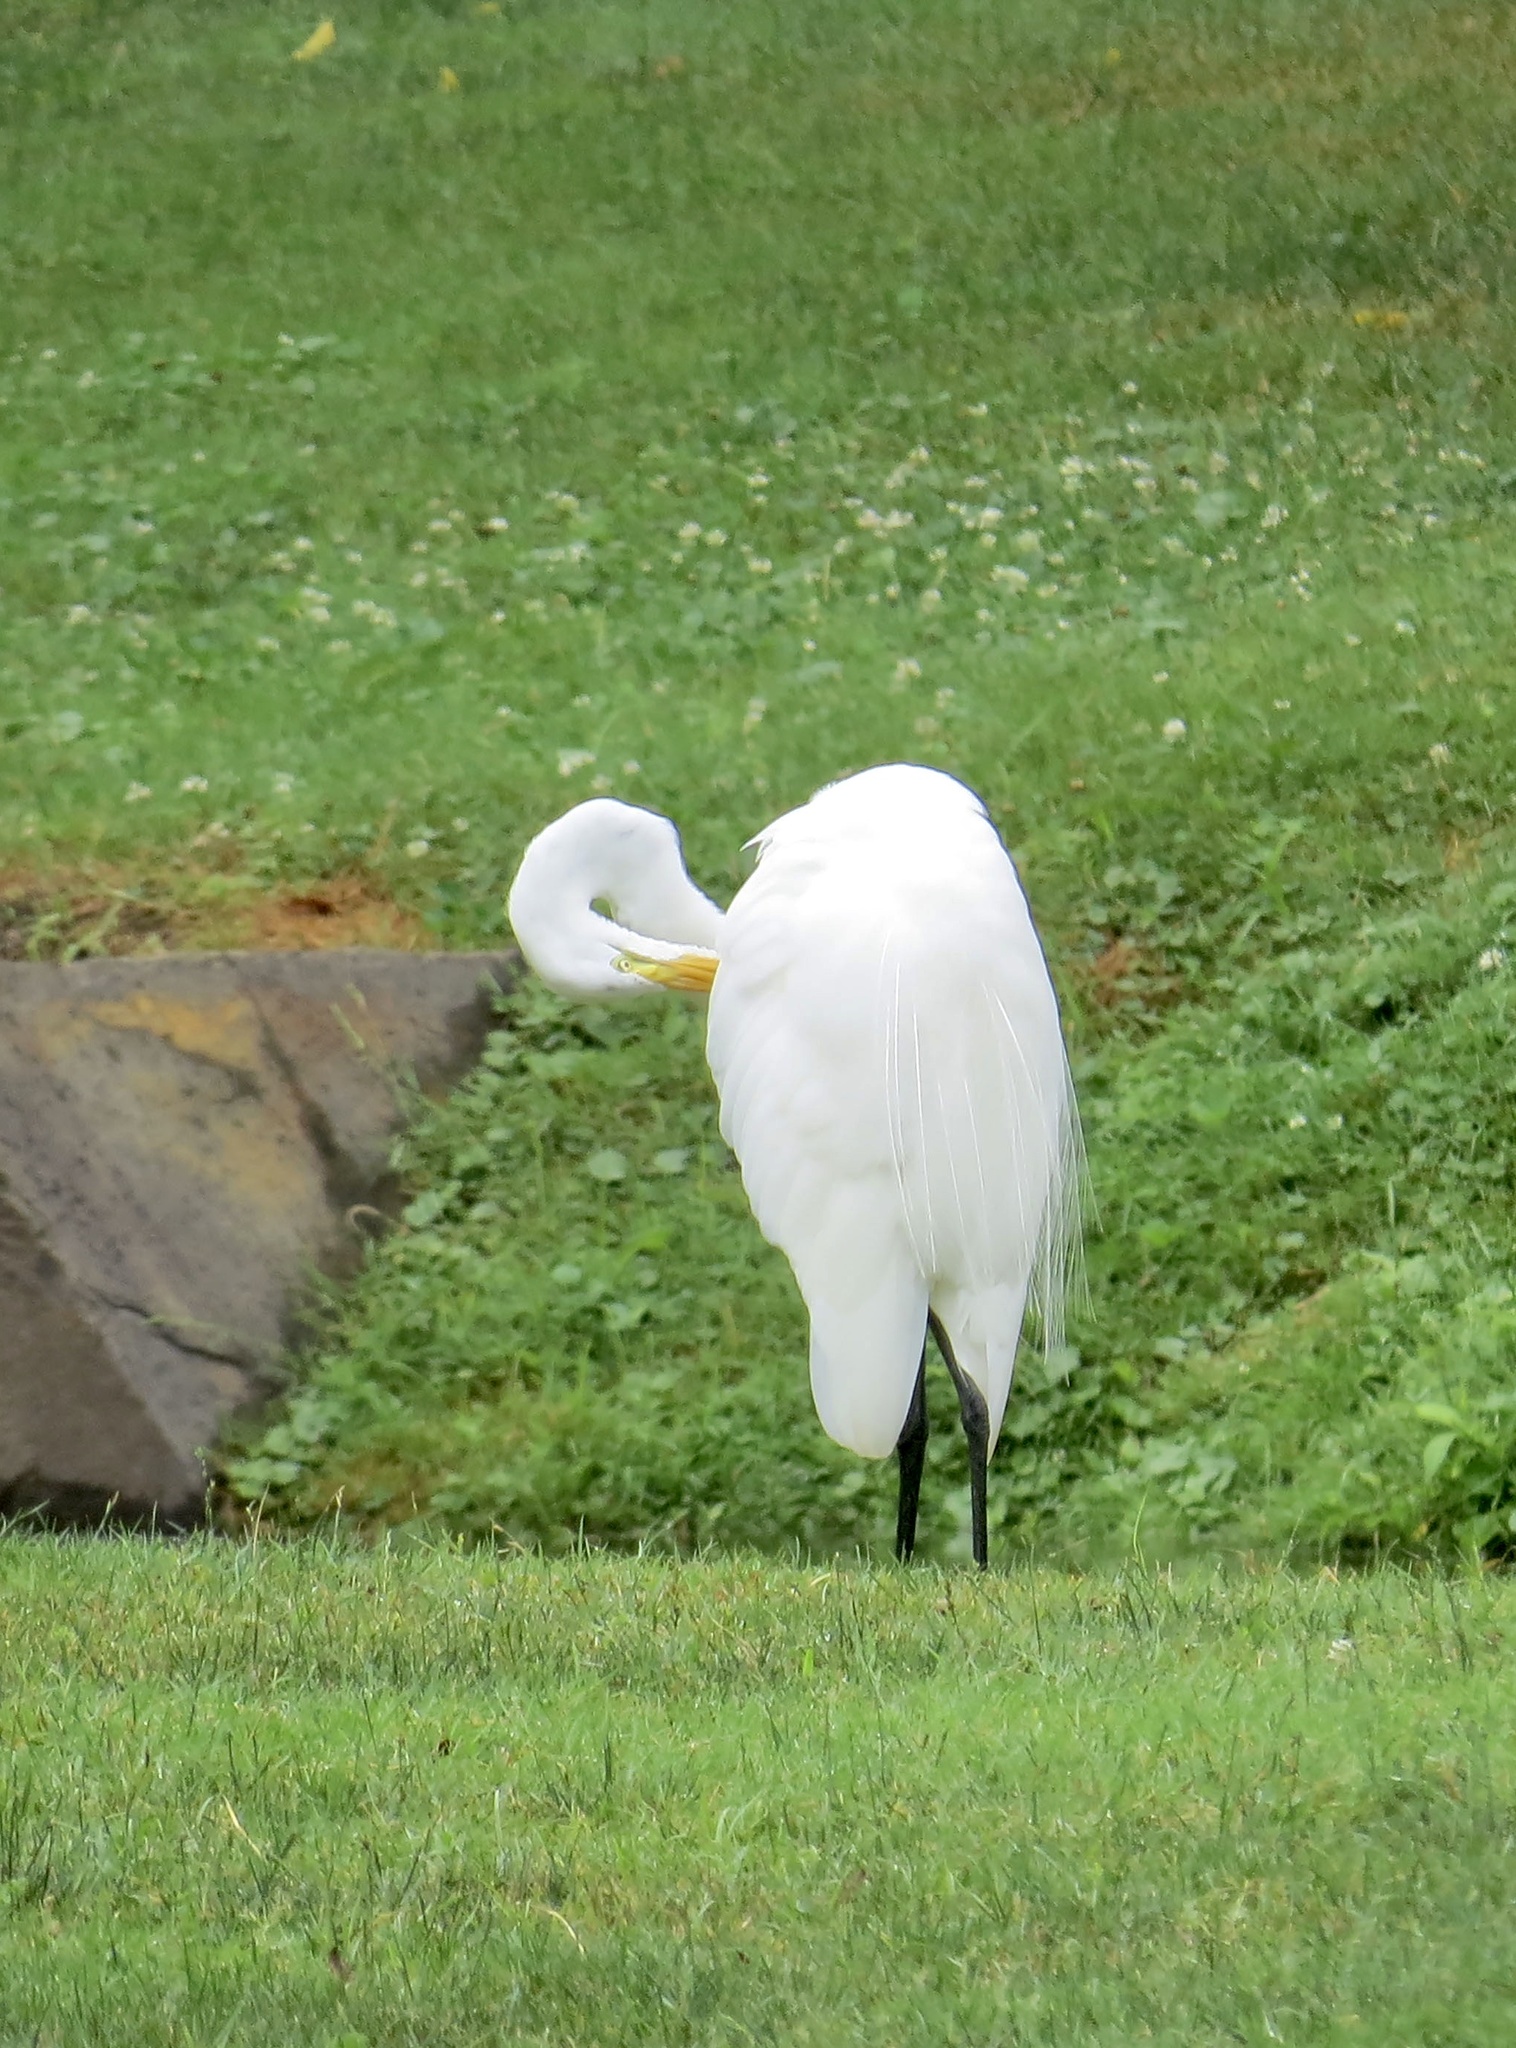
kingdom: Animalia
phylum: Chordata
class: Aves
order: Pelecaniformes
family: Ardeidae
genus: Ardea
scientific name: Ardea alba
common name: Great egret
